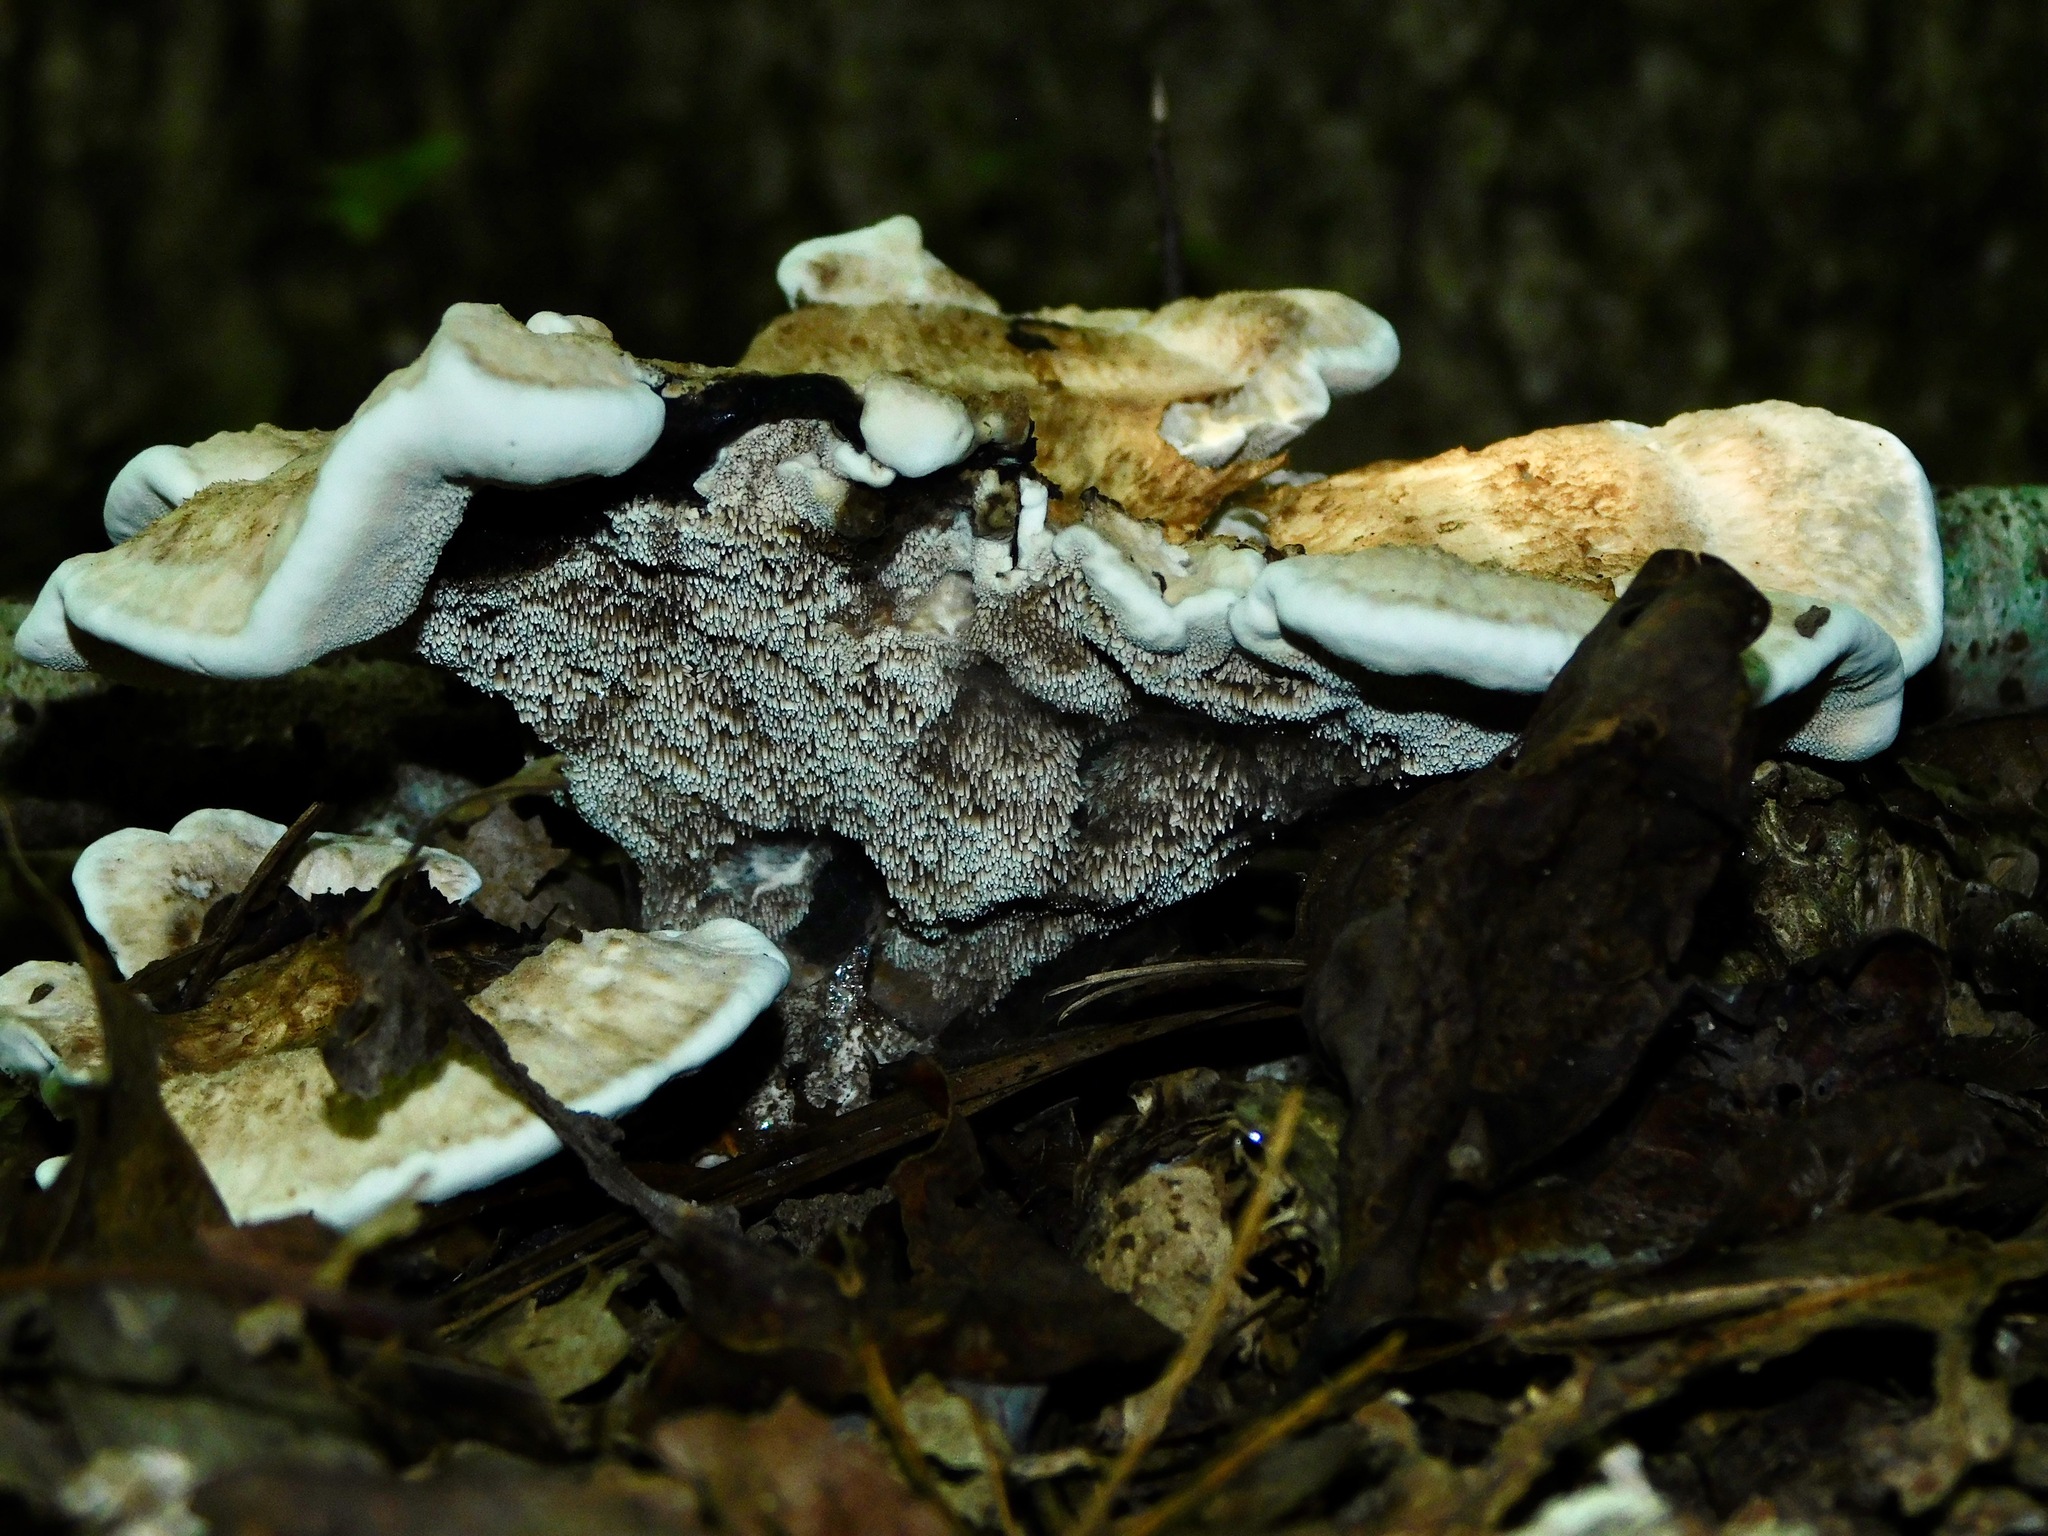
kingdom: Fungi
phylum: Basidiomycota
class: Agaricomycetes
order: Thelephorales
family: Thelephoraceae
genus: Phellodon
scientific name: Phellodon tomentosus
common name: Woolly tooth
